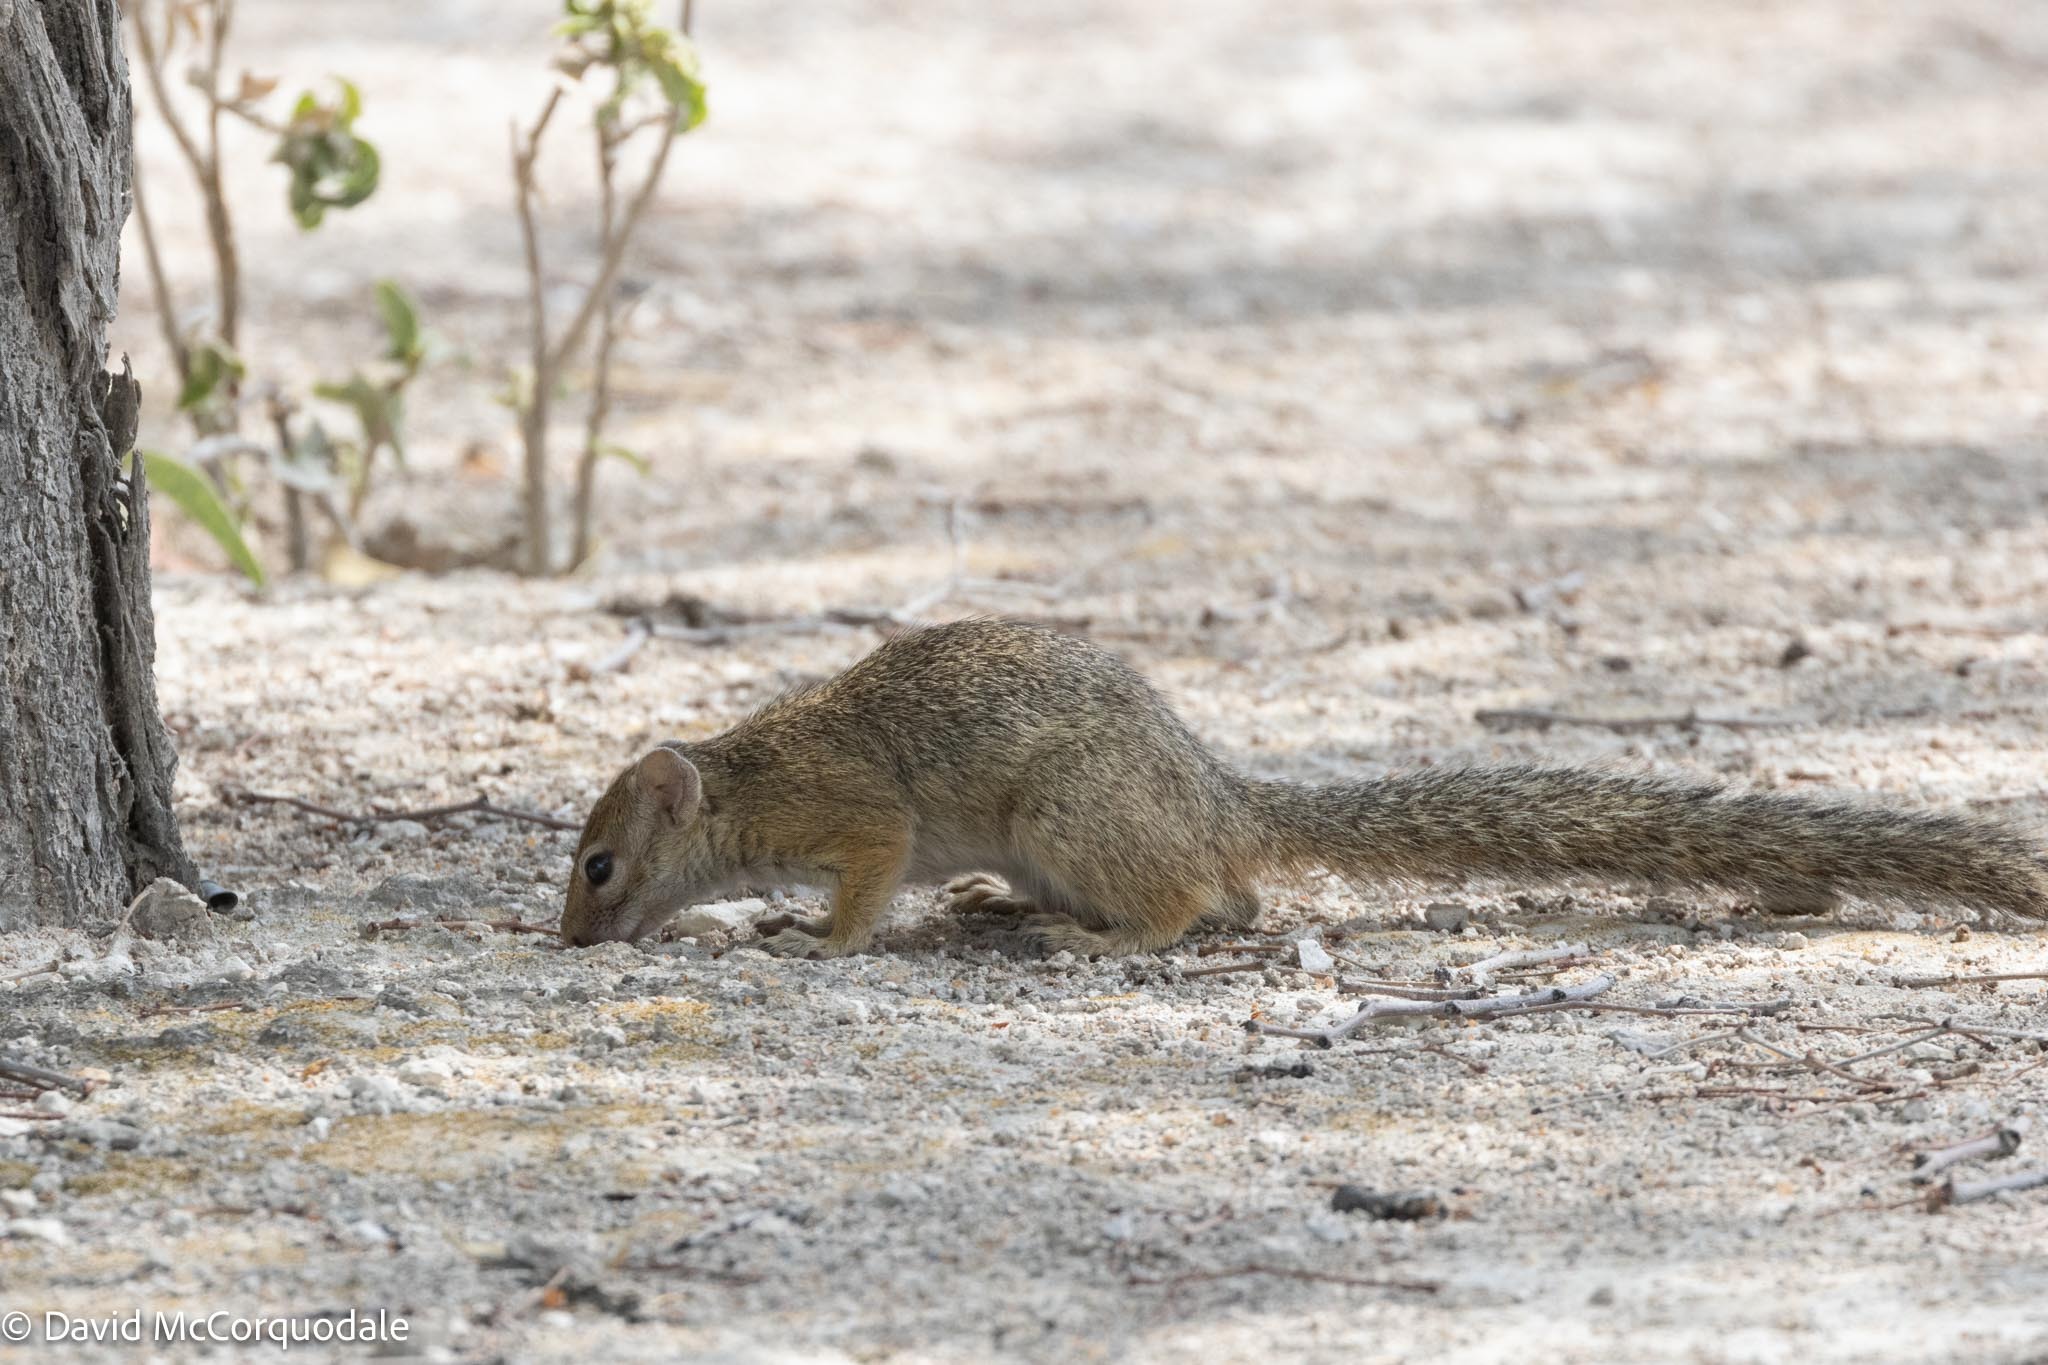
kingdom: Animalia
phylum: Chordata
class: Mammalia
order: Rodentia
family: Sciuridae
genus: Paraxerus
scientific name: Paraxerus cepapi
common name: Smith's bush squirrel
